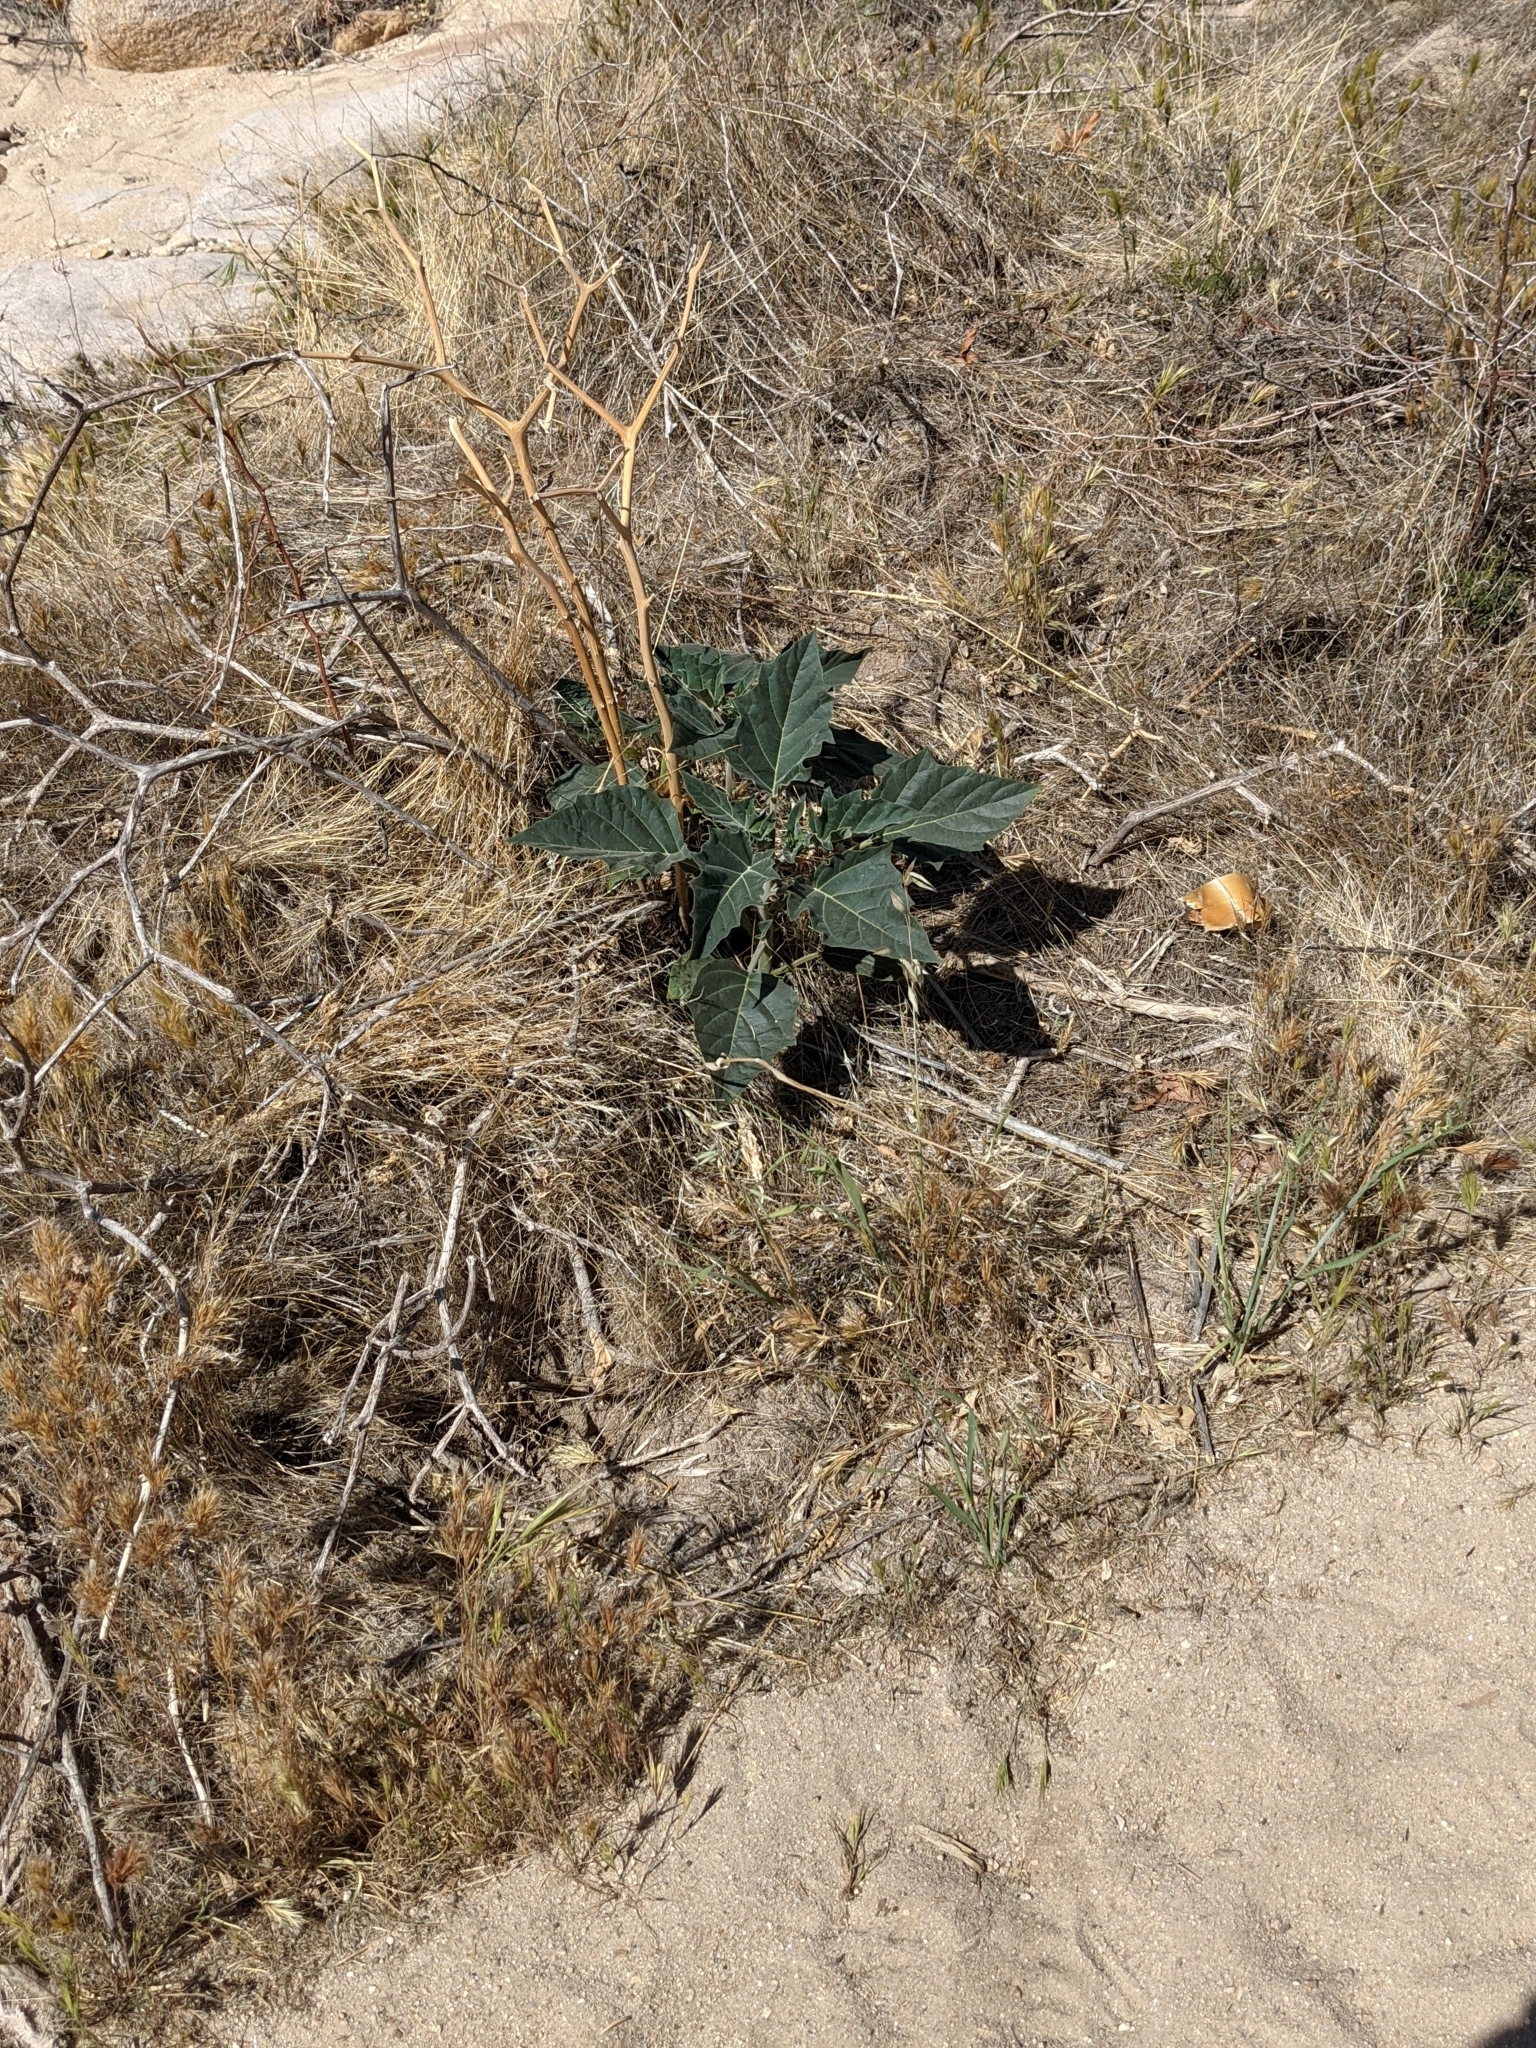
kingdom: Plantae
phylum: Tracheophyta
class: Magnoliopsida
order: Solanales
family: Solanaceae
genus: Datura
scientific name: Datura wrightii
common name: Sacred thorn-apple
